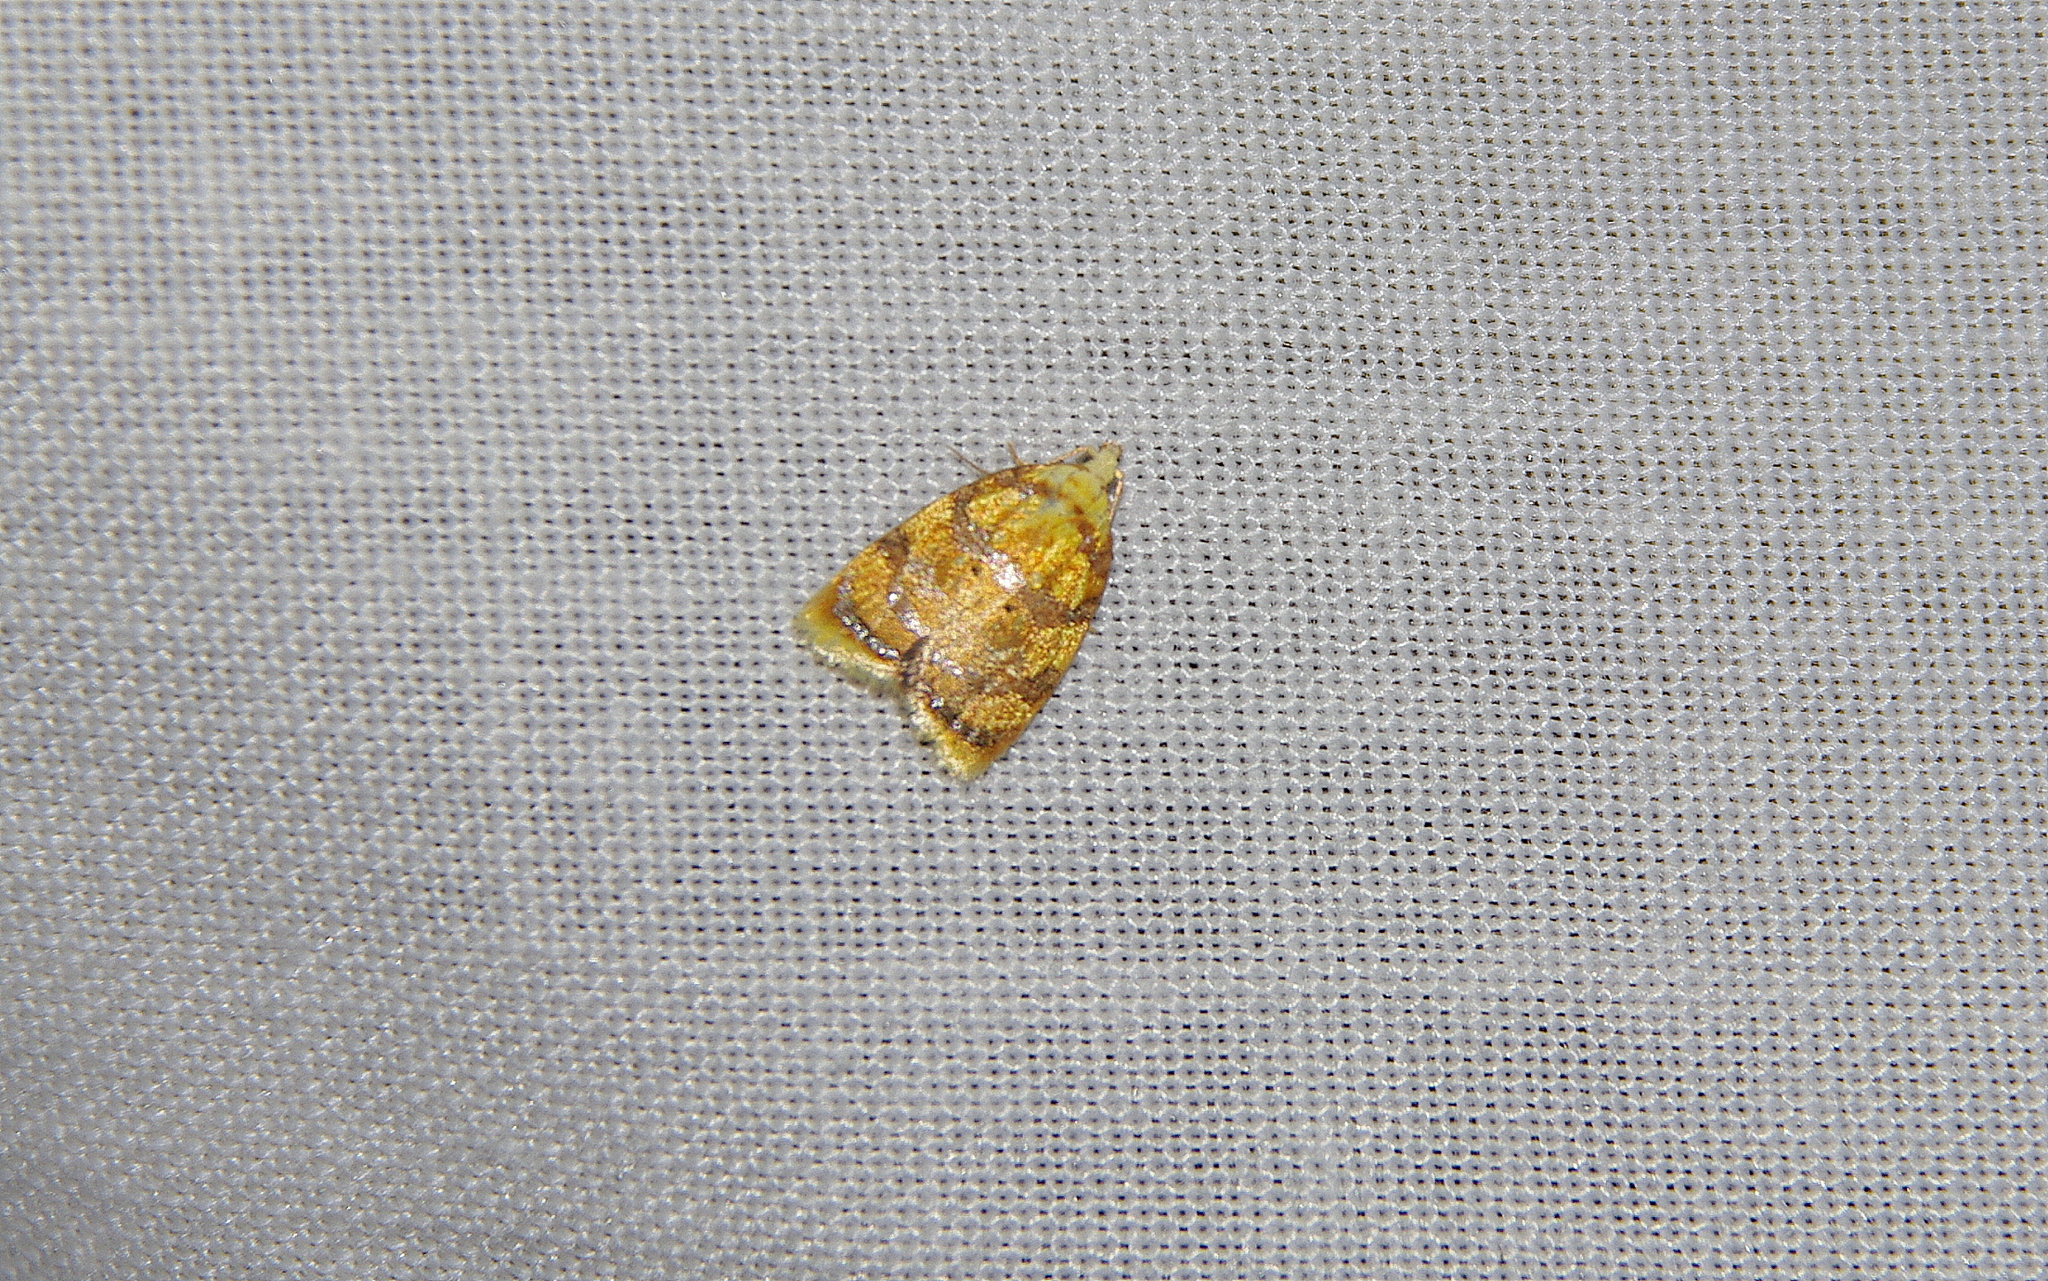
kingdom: Animalia
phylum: Arthropoda
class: Insecta
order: Lepidoptera
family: Tortricidae
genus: Acleris
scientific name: Acleris albicomana
